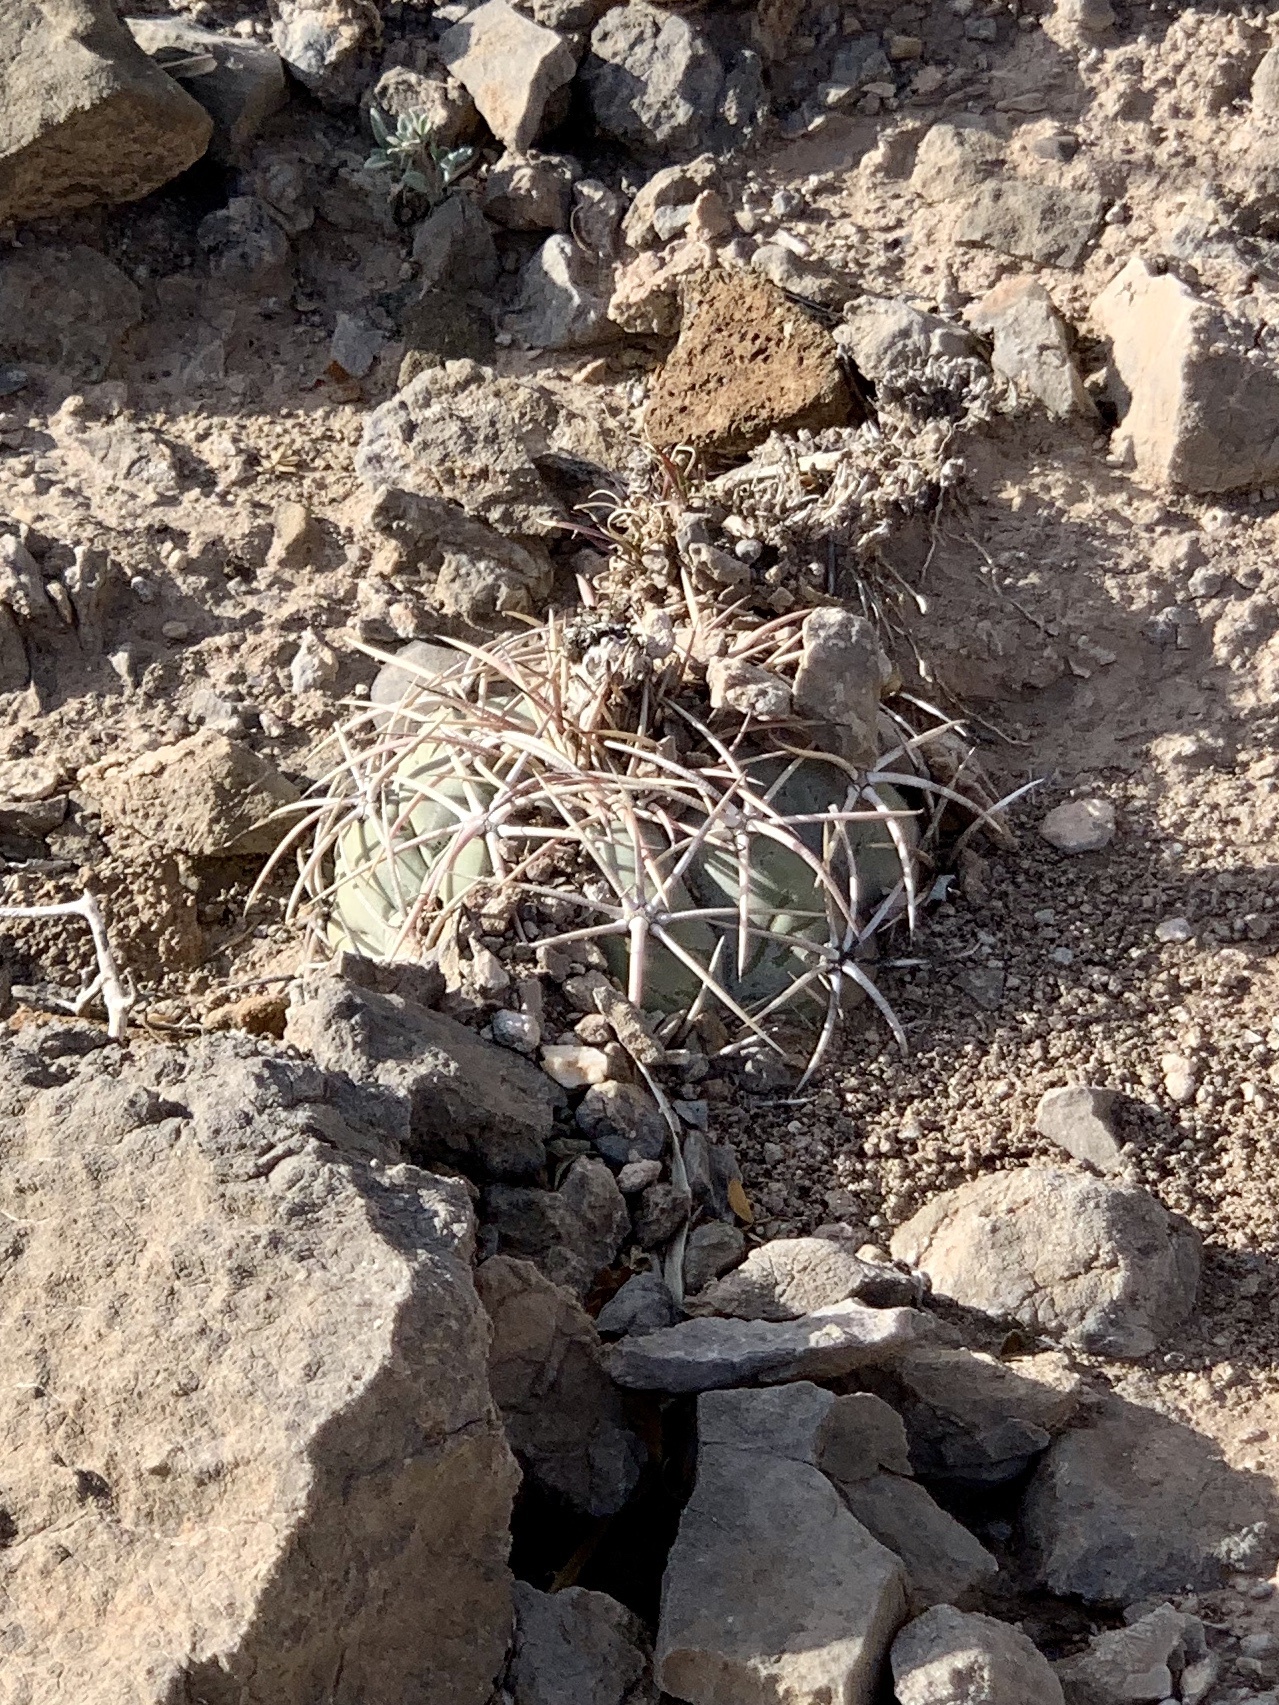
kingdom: Plantae
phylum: Tracheophyta
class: Magnoliopsida
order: Caryophyllales
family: Cactaceae
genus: Echinocactus
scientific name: Echinocactus horizonthalonius
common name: Devilshead
